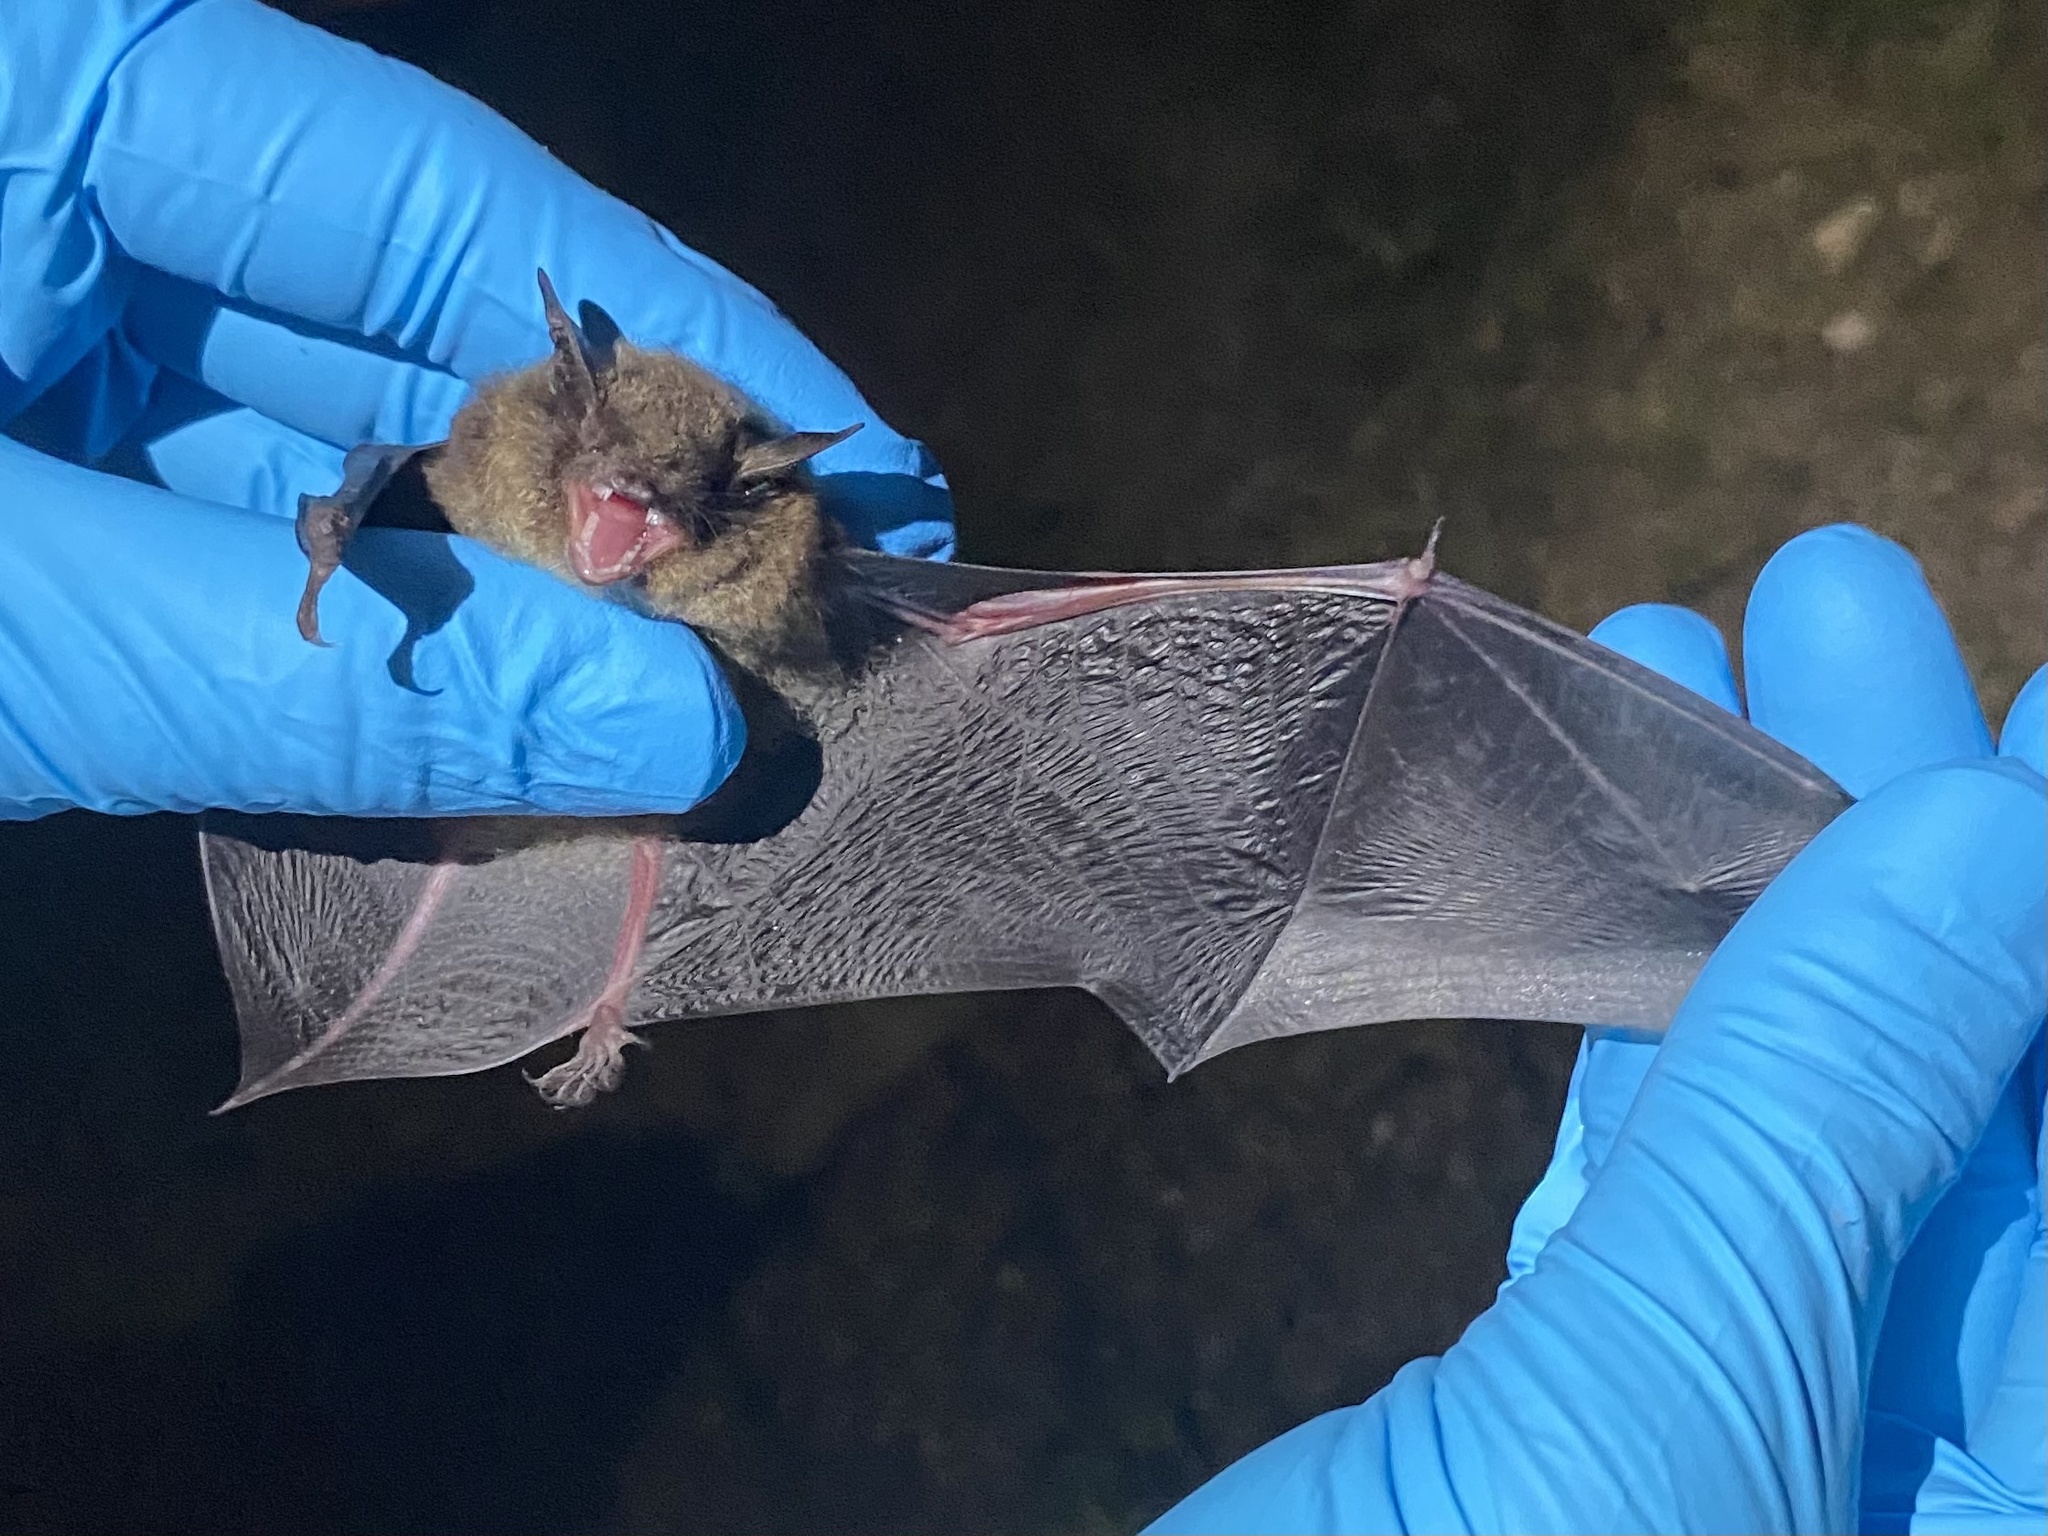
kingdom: Animalia
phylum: Chordata
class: Mammalia
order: Chiroptera
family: Vespertilionidae
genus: Myotis
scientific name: Myotis lucifugus
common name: Little brown bat
